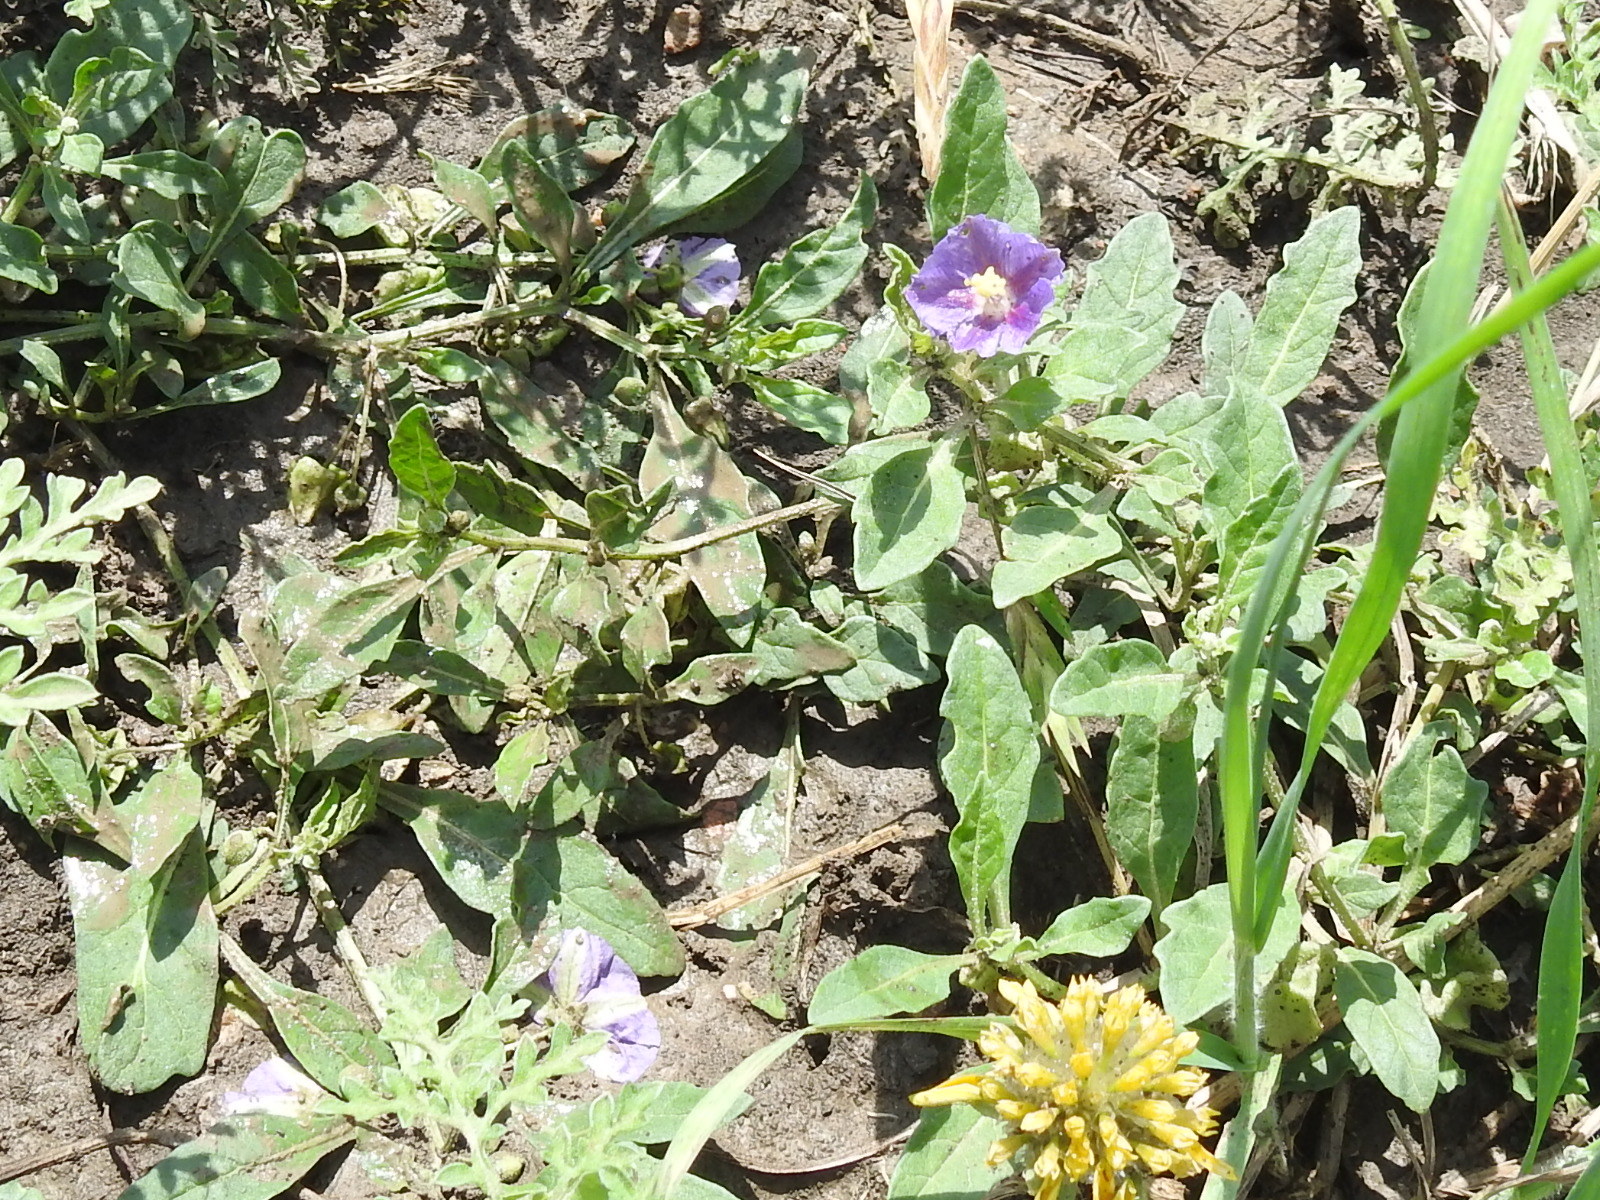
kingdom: Plantae
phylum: Tracheophyta
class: Magnoliopsida
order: Solanales
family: Solanaceae
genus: Quincula
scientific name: Quincula lobata
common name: Purple-ground-cherry
